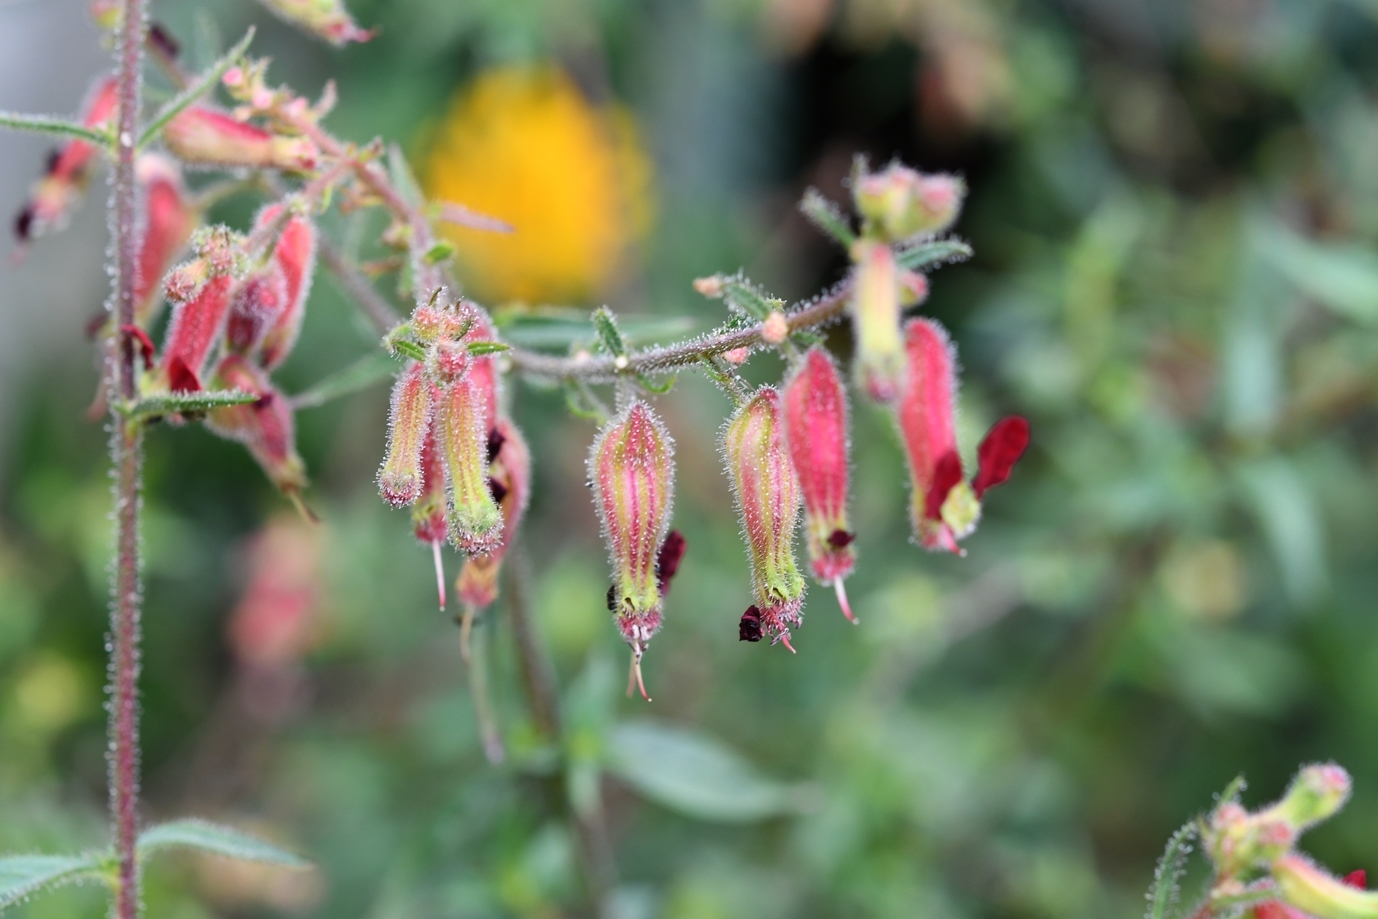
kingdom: Plantae
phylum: Tracheophyta
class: Magnoliopsida
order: Myrtales
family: Lythraceae
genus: Cuphea
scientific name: Cuphea hookeriana
